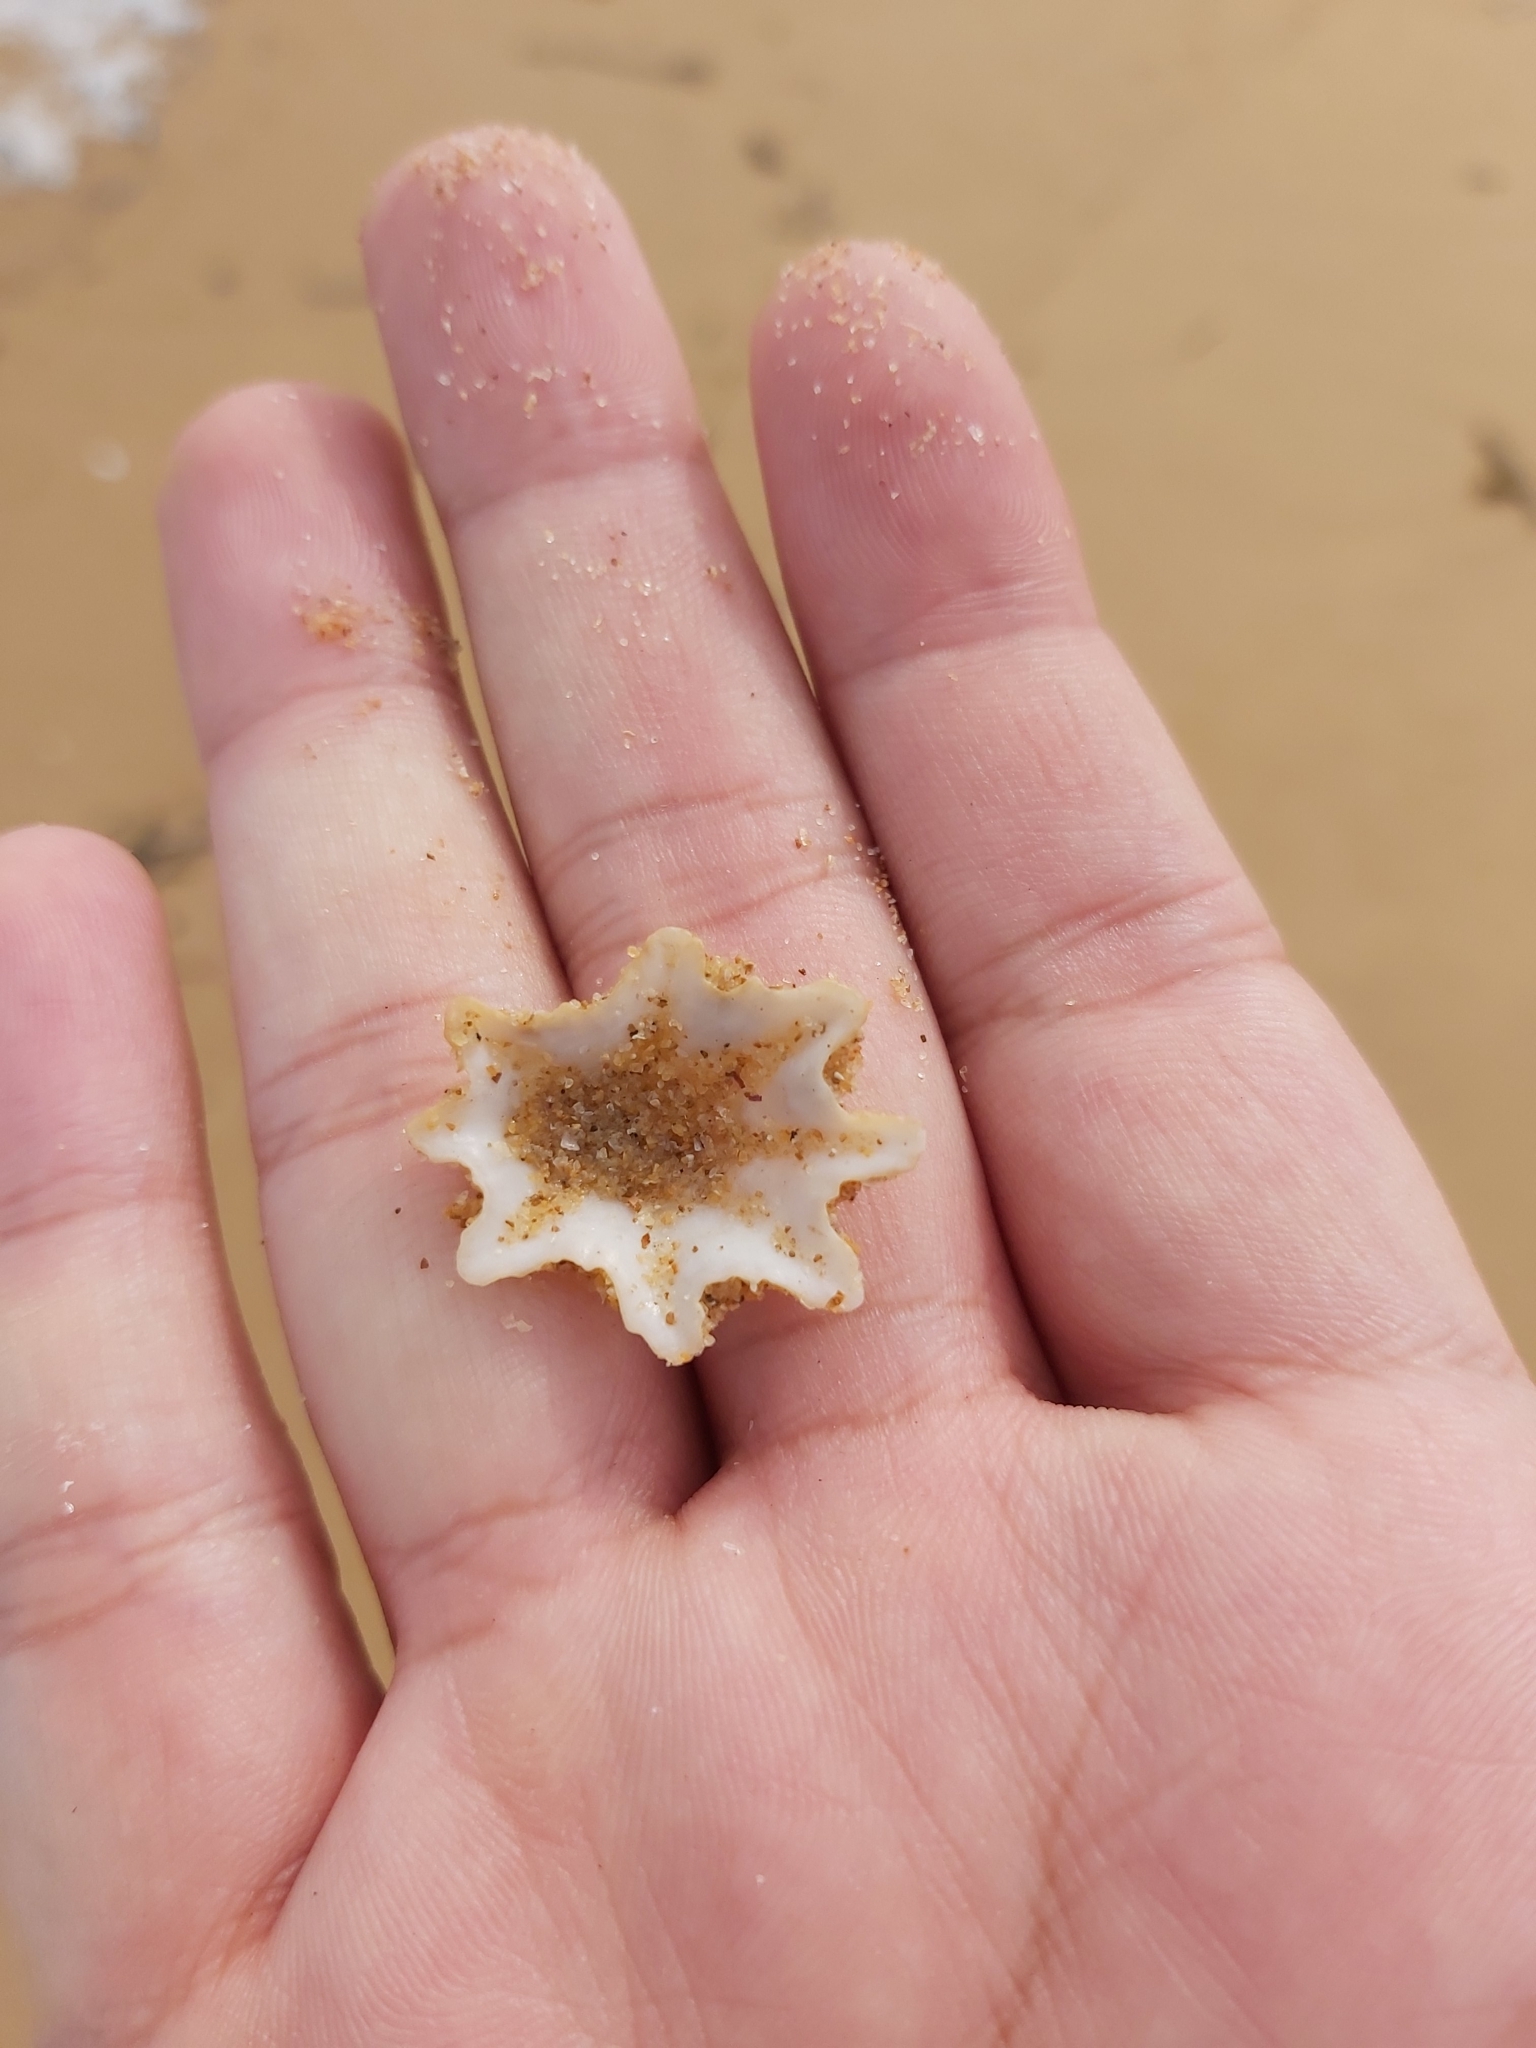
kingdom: Animalia
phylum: Mollusca
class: Gastropoda
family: Patellidae
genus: Scutellastra
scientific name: Scutellastra chapmani
